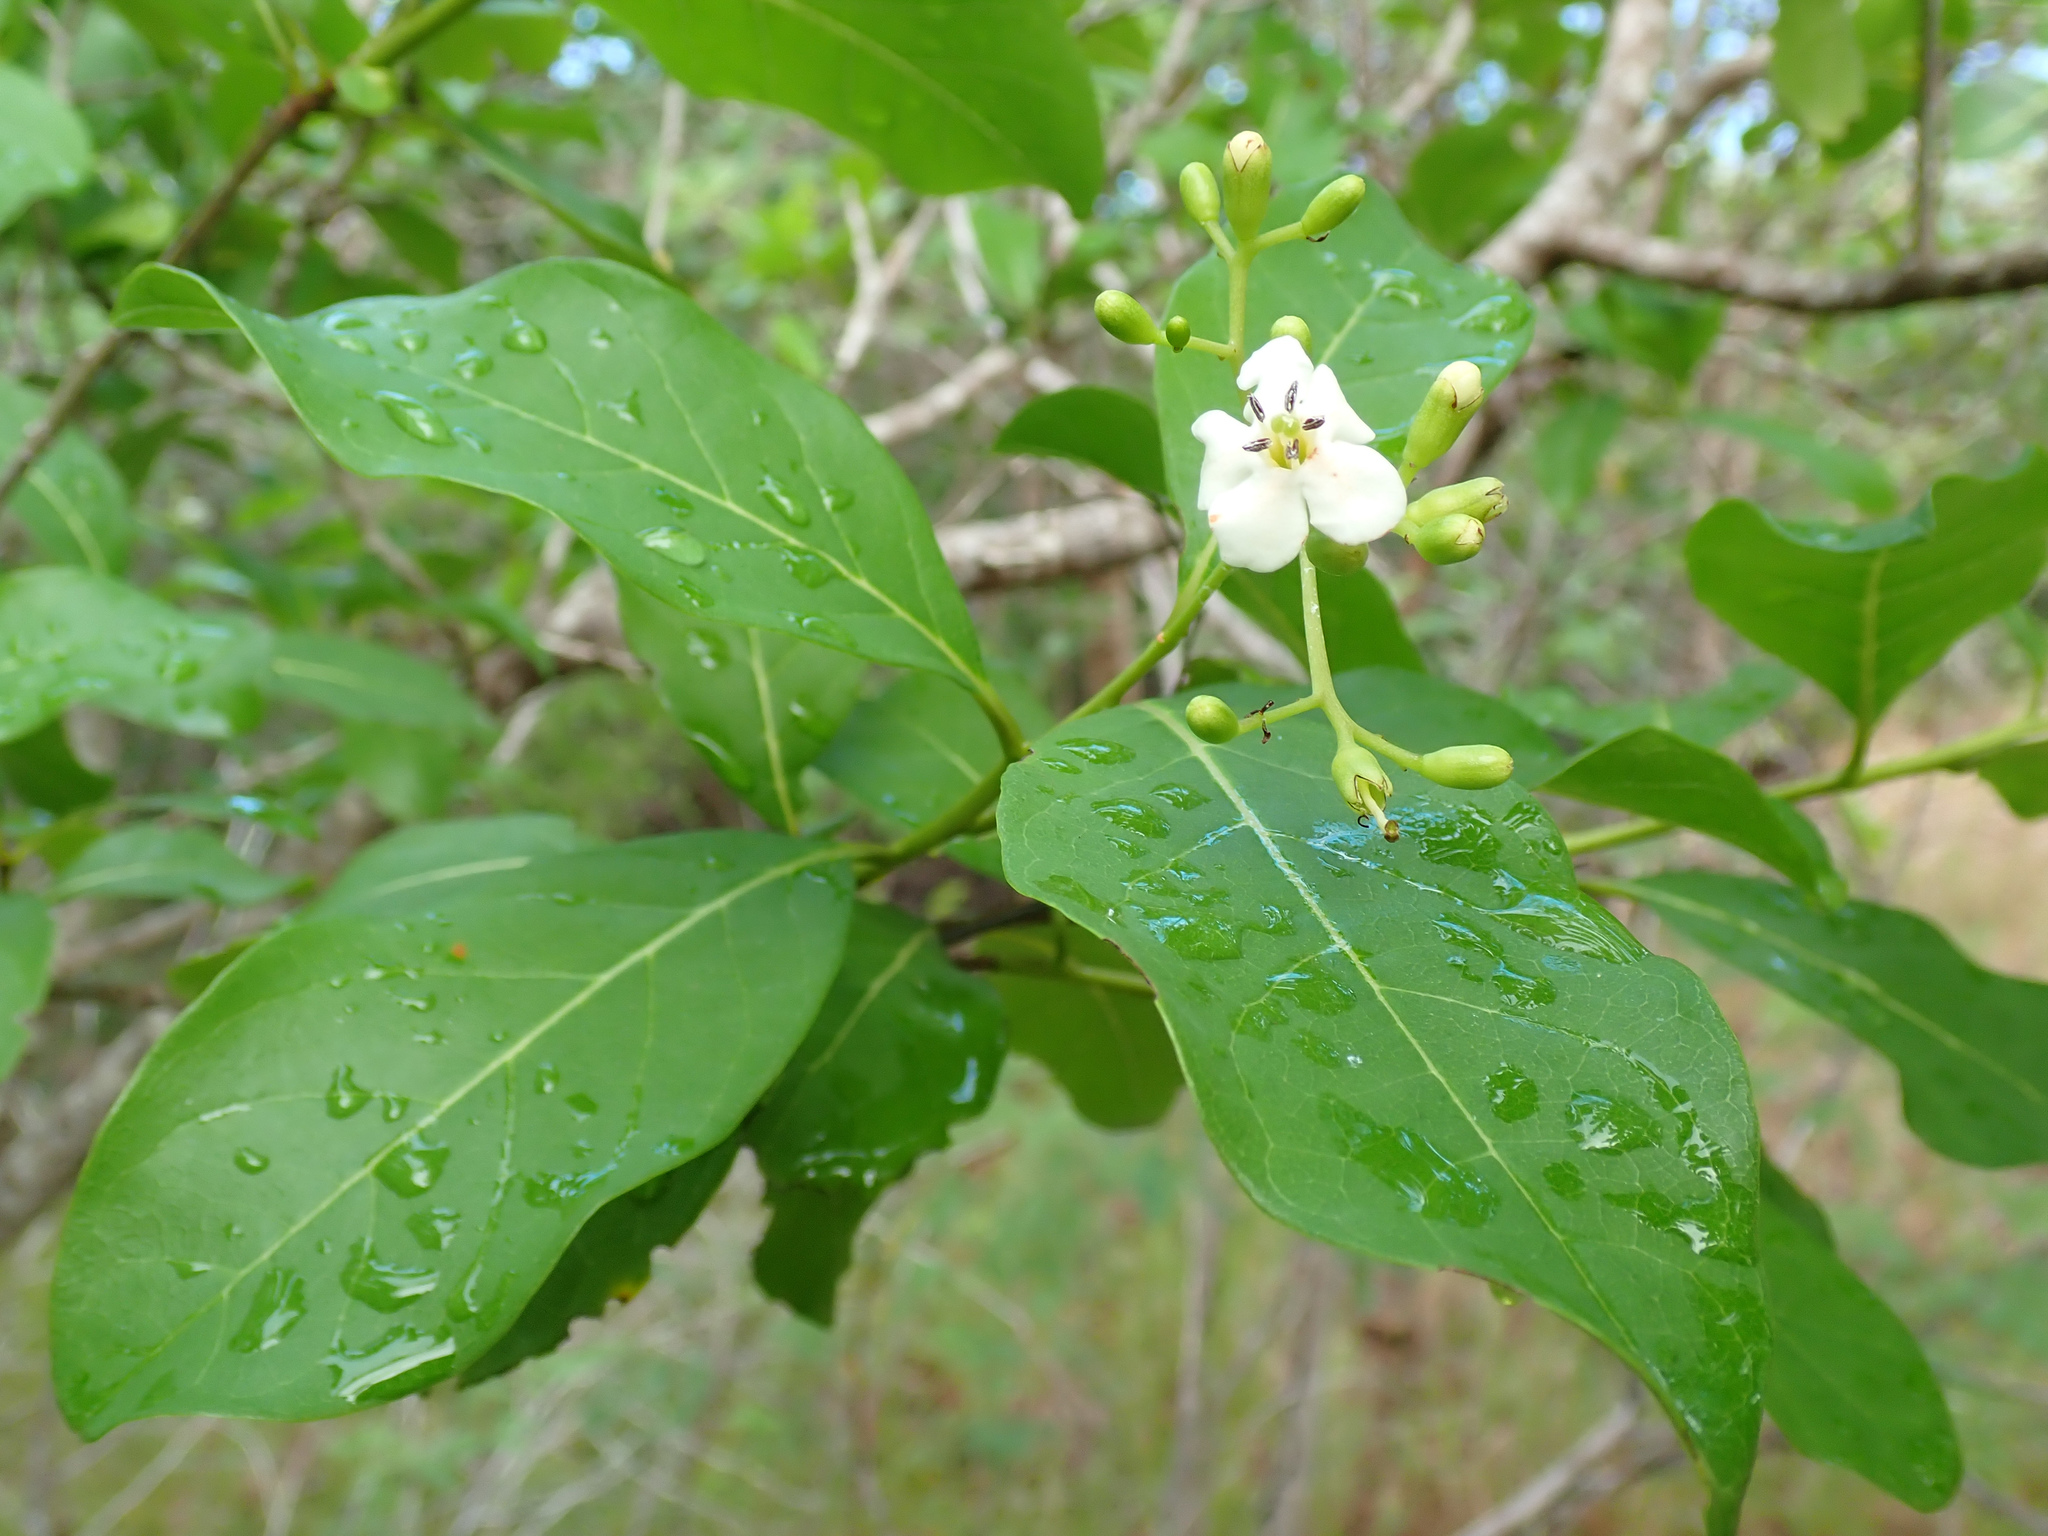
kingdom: Plantae
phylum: Tracheophyta
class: Magnoliopsida
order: Boraginales
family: Ehretiaceae
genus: Bourreria
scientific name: Bourreria succulenta
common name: Cherry
